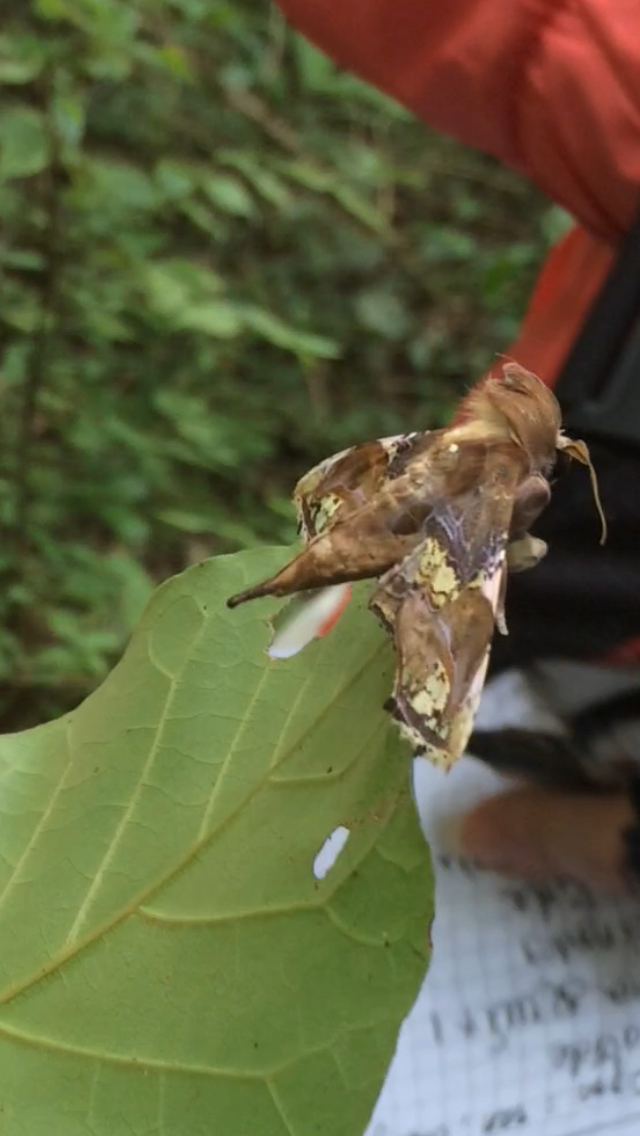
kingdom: Animalia
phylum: Arthropoda
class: Insecta
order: Lepidoptera
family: Euteliidae
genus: Caligatus
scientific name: Caligatus angasii
